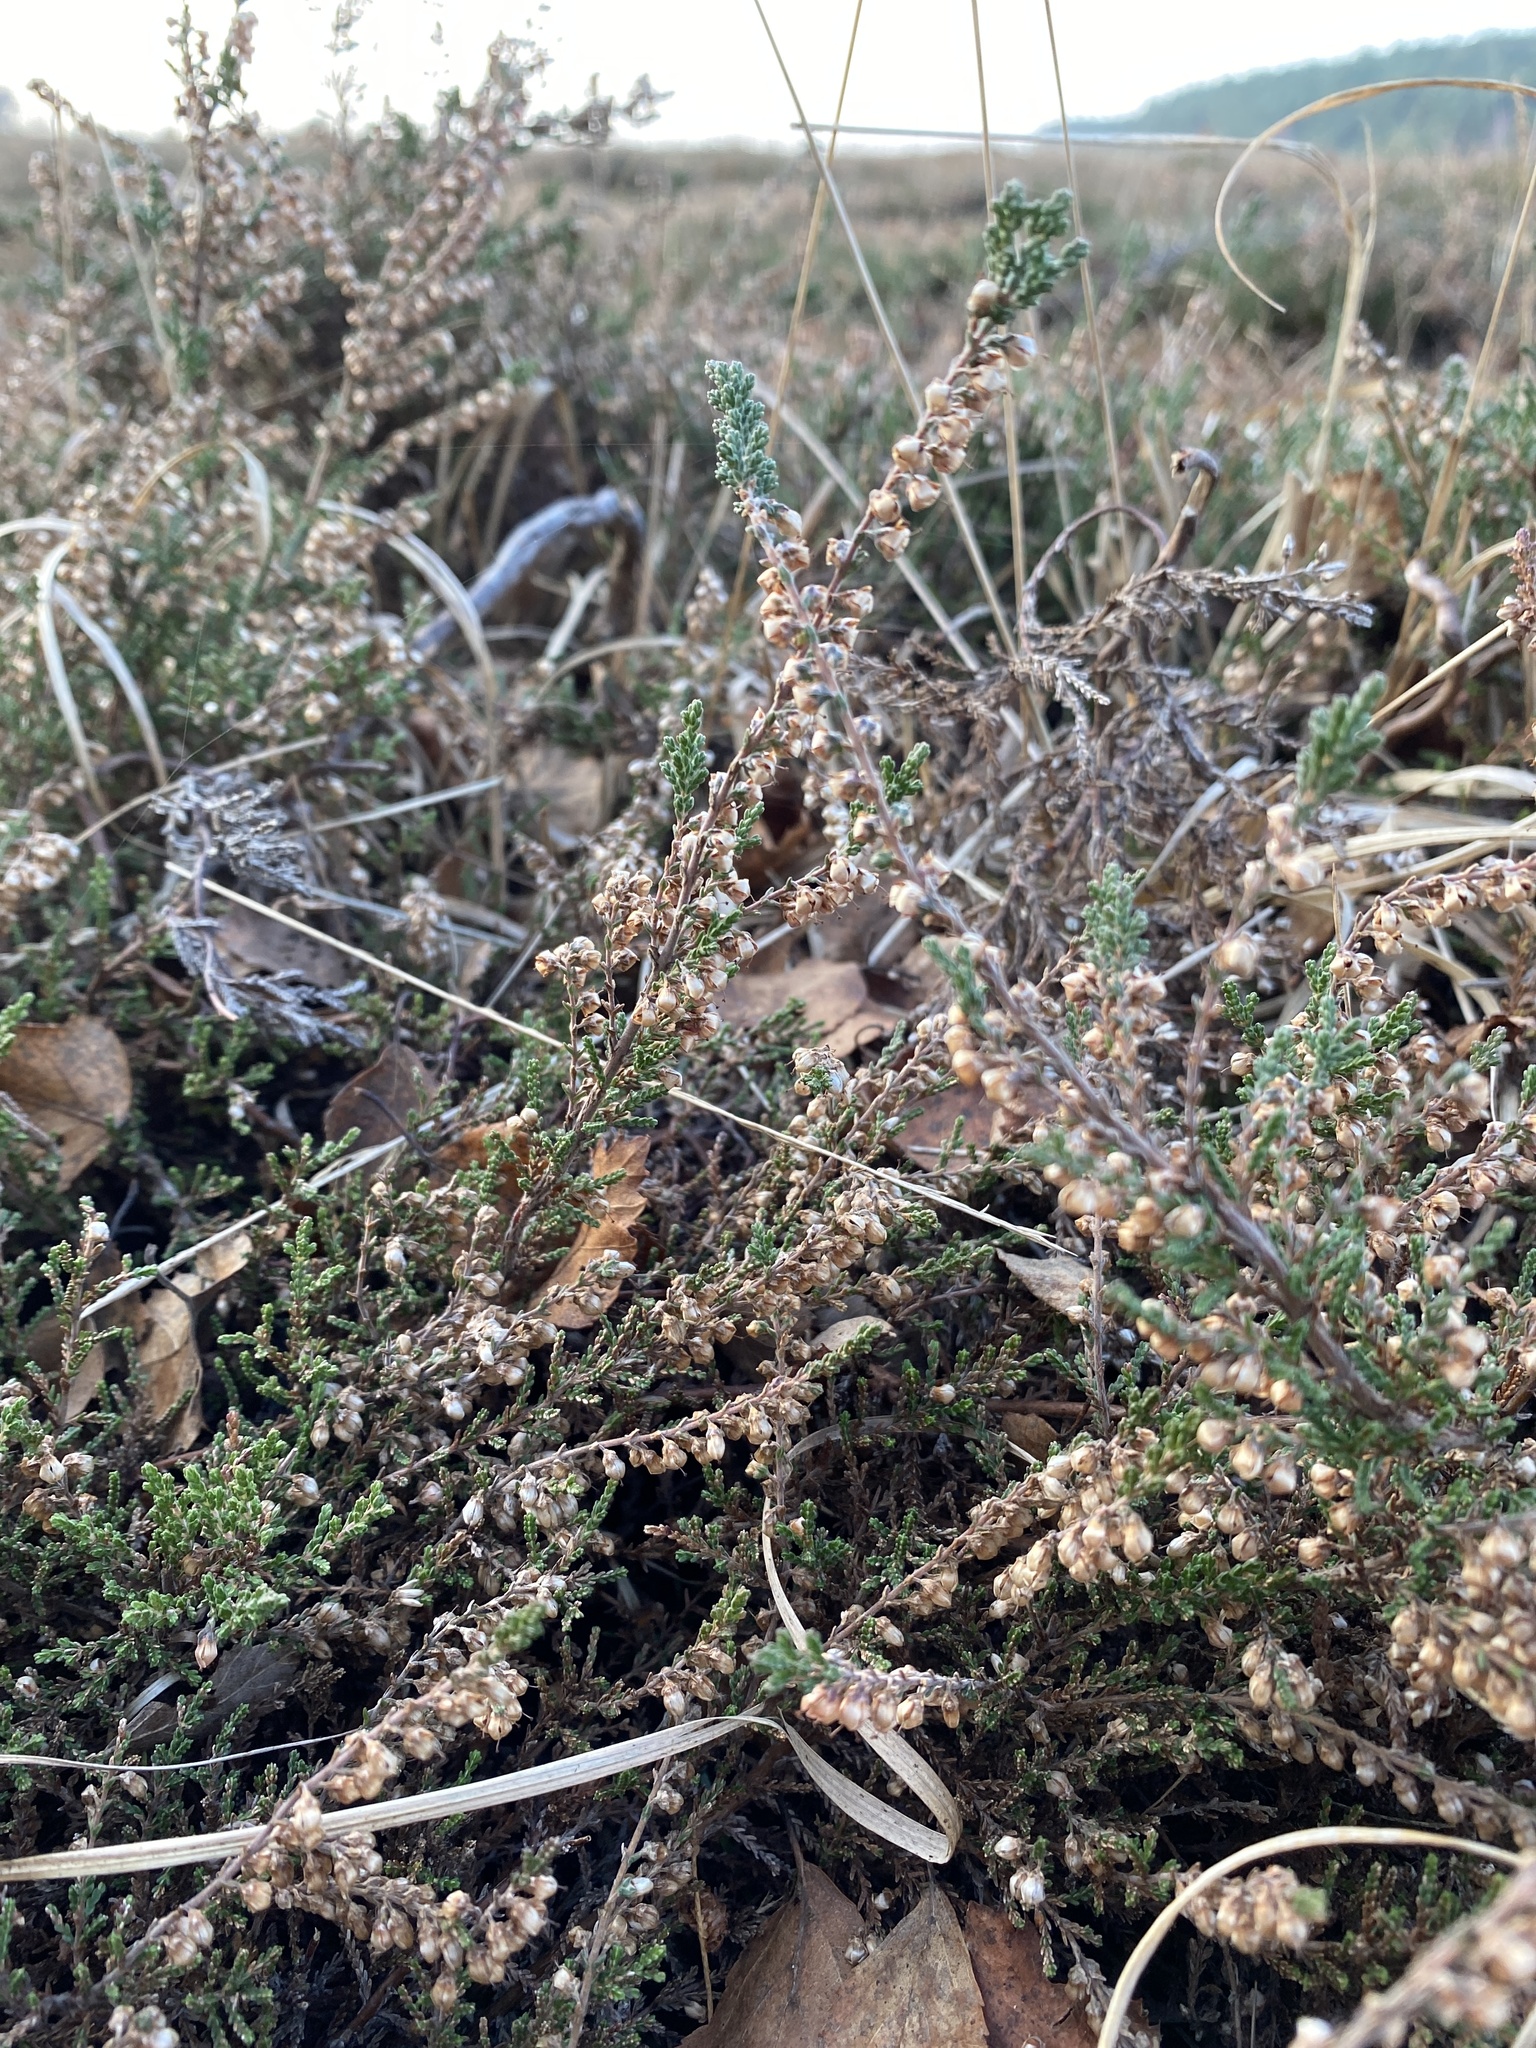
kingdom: Plantae
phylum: Tracheophyta
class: Magnoliopsida
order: Ericales
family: Ericaceae
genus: Calluna
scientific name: Calluna vulgaris
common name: Heather
